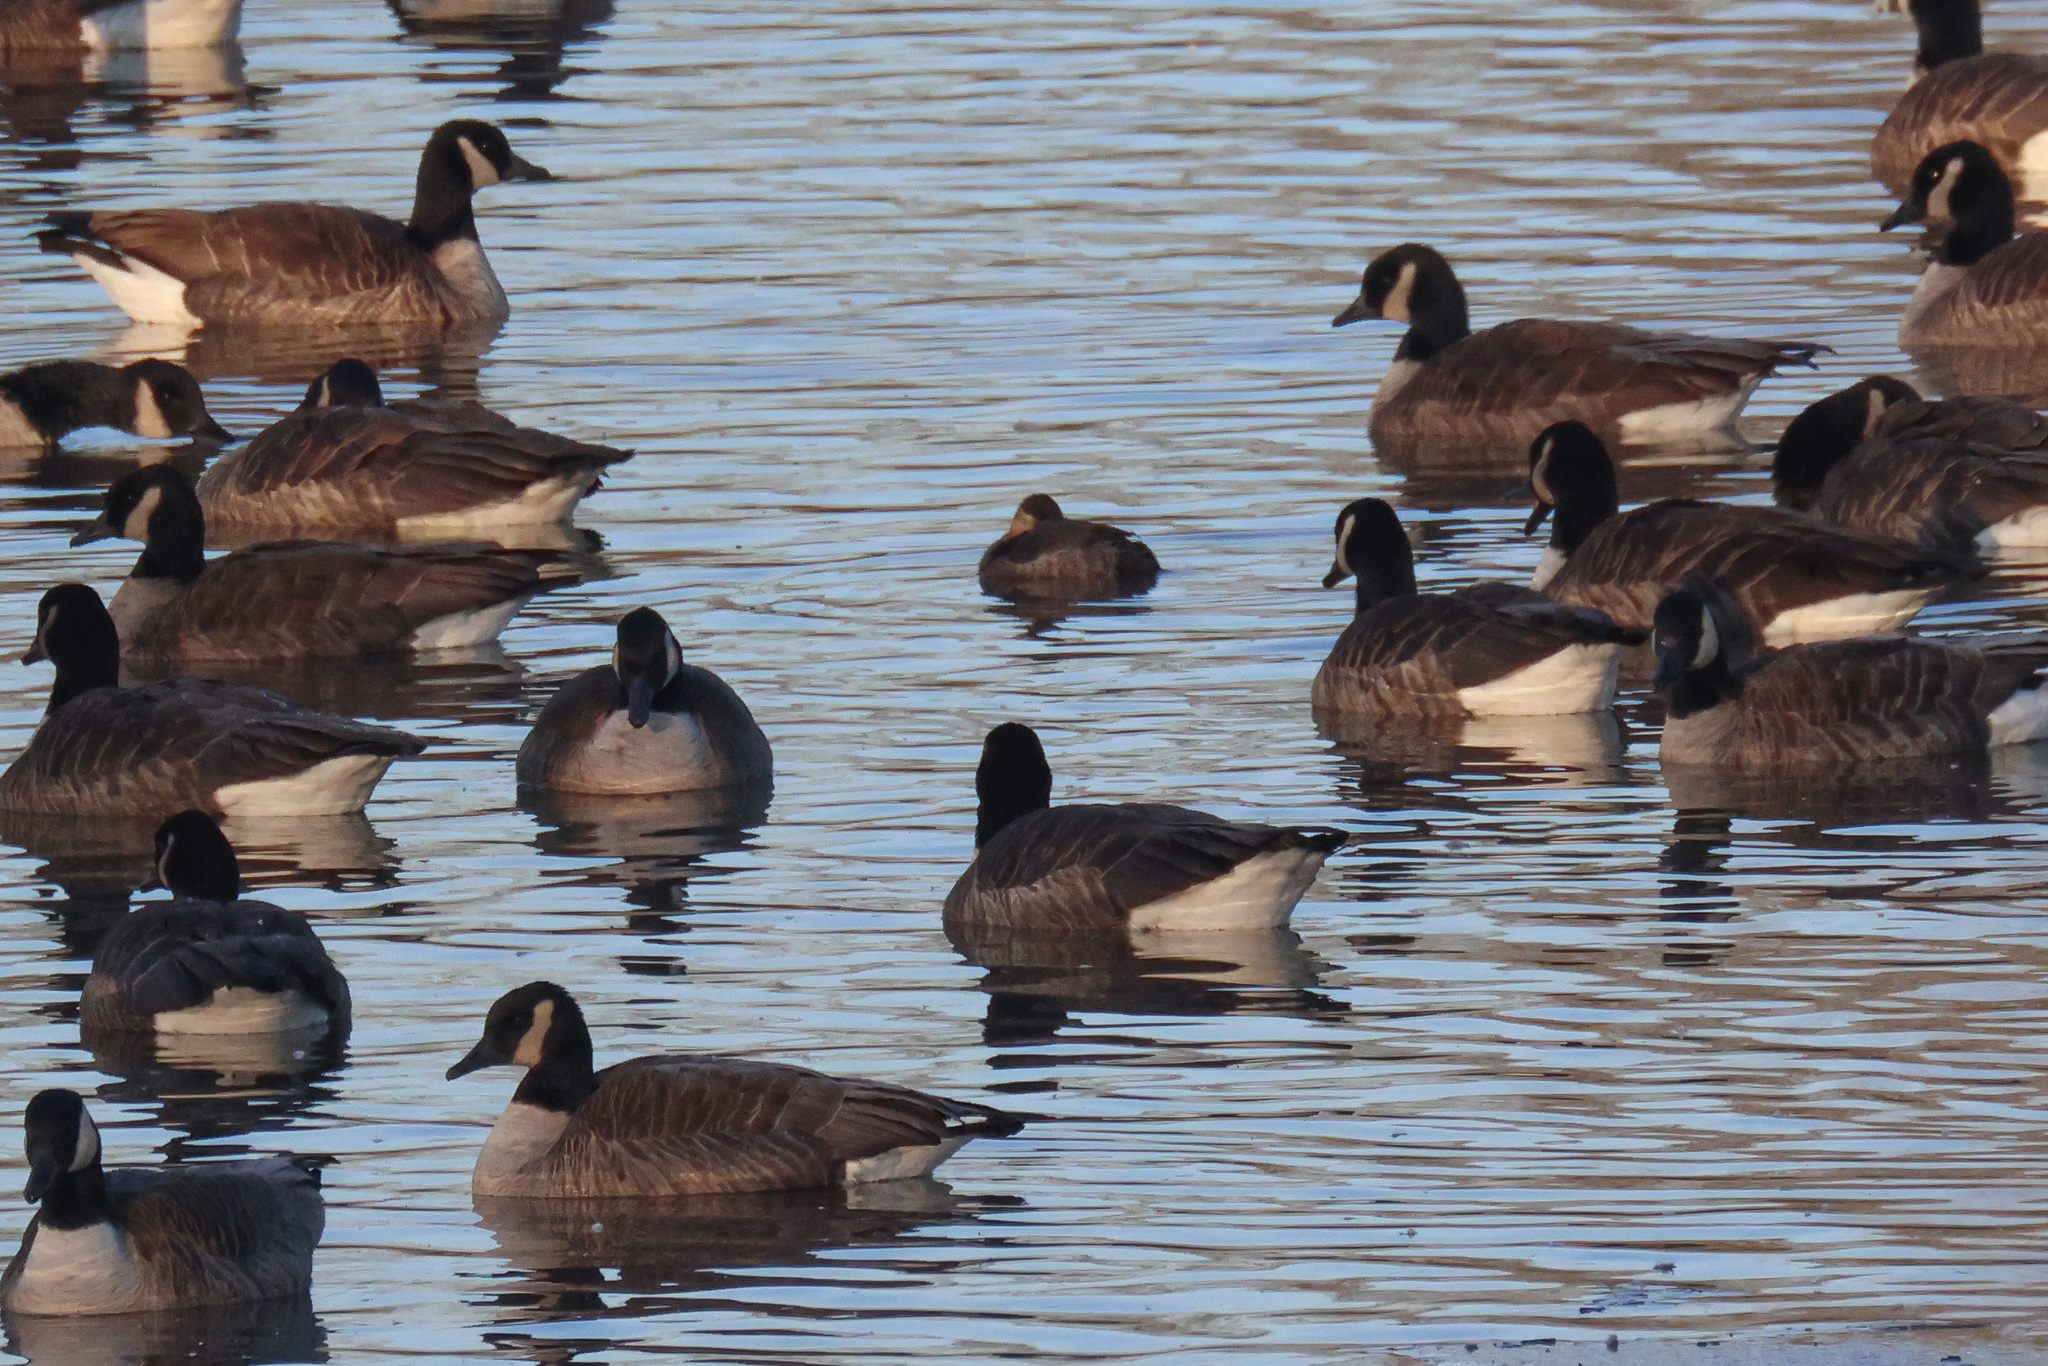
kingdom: Animalia
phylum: Chordata
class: Aves
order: Anseriformes
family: Anatidae
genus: Oxyura
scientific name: Oxyura jamaicensis
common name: Ruddy duck
